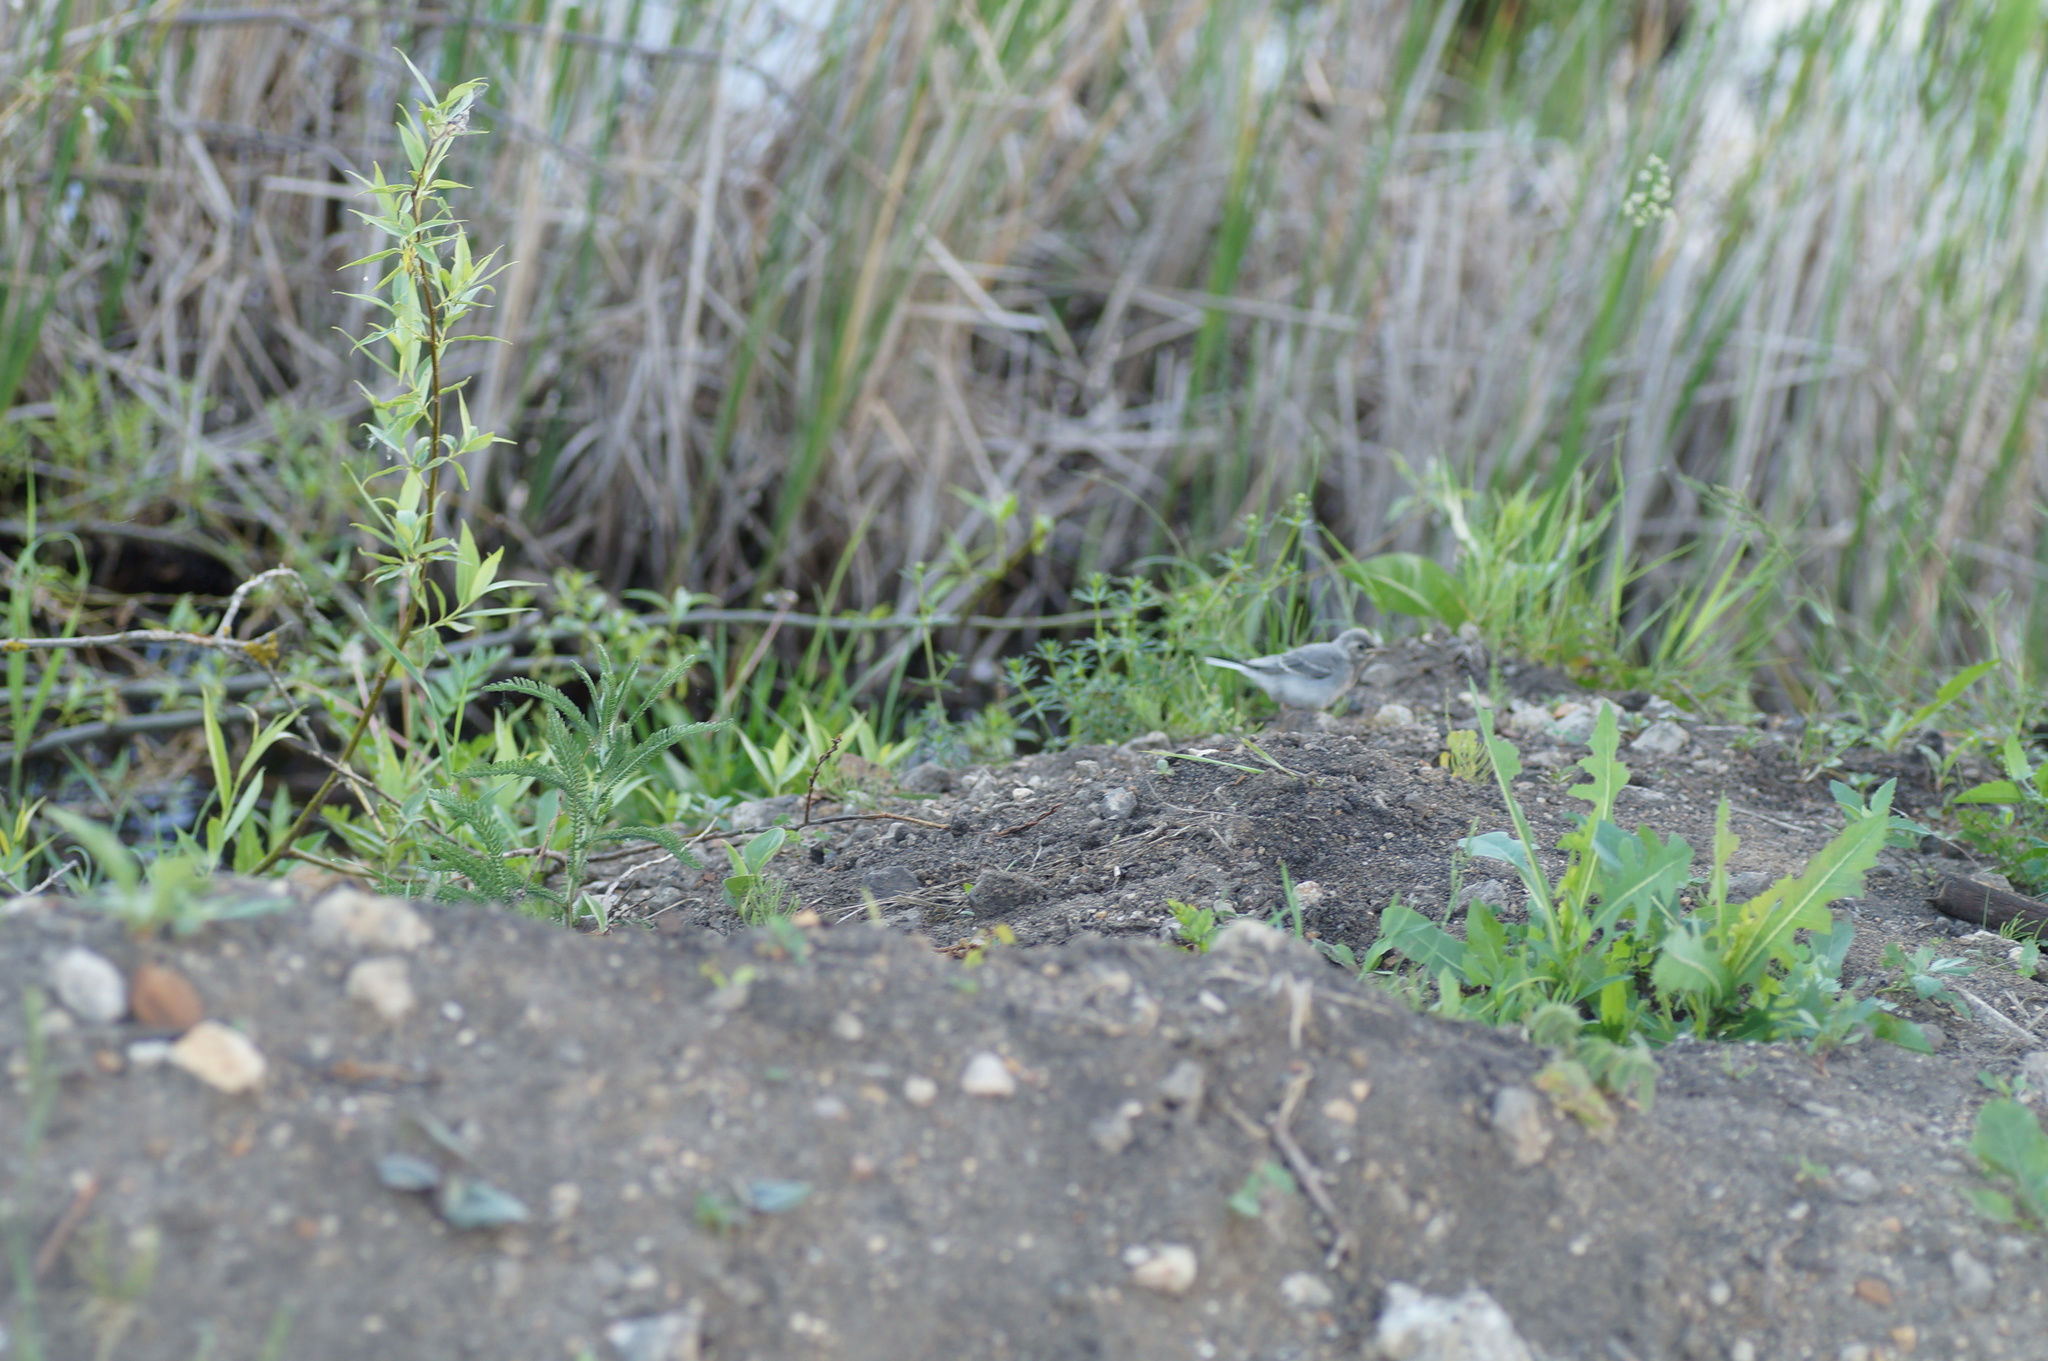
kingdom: Animalia
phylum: Chordata
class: Aves
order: Passeriformes
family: Motacillidae
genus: Motacilla
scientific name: Motacilla alba
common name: White wagtail
